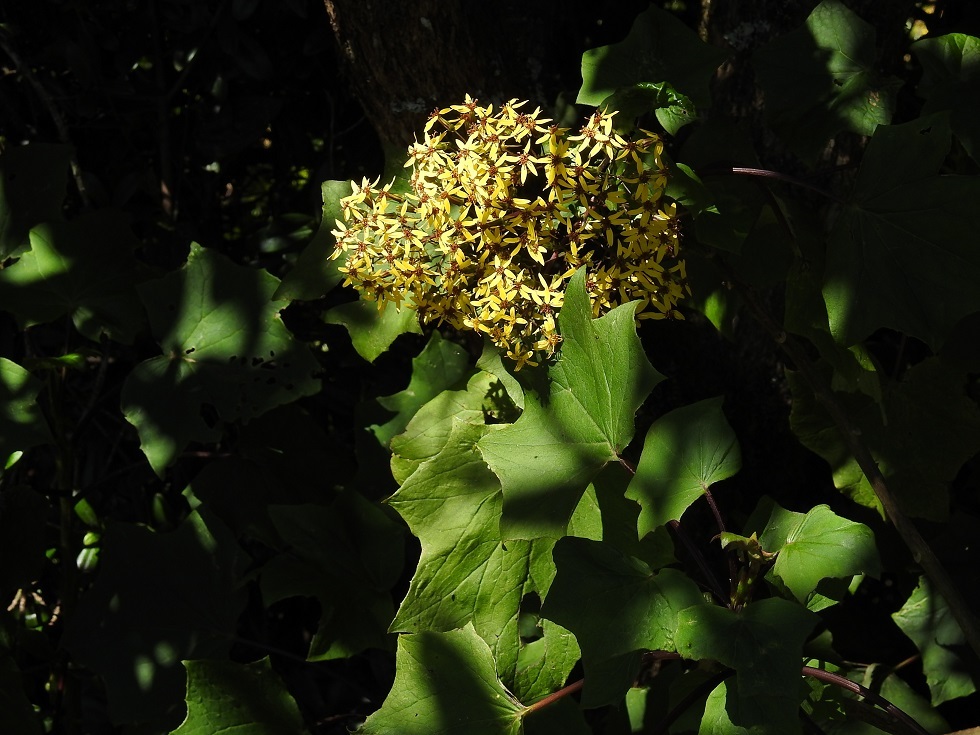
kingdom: Plantae
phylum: Tracheophyta
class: Magnoliopsida
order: Asterales
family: Asteraceae
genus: Roldana
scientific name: Roldana jurgensenii
